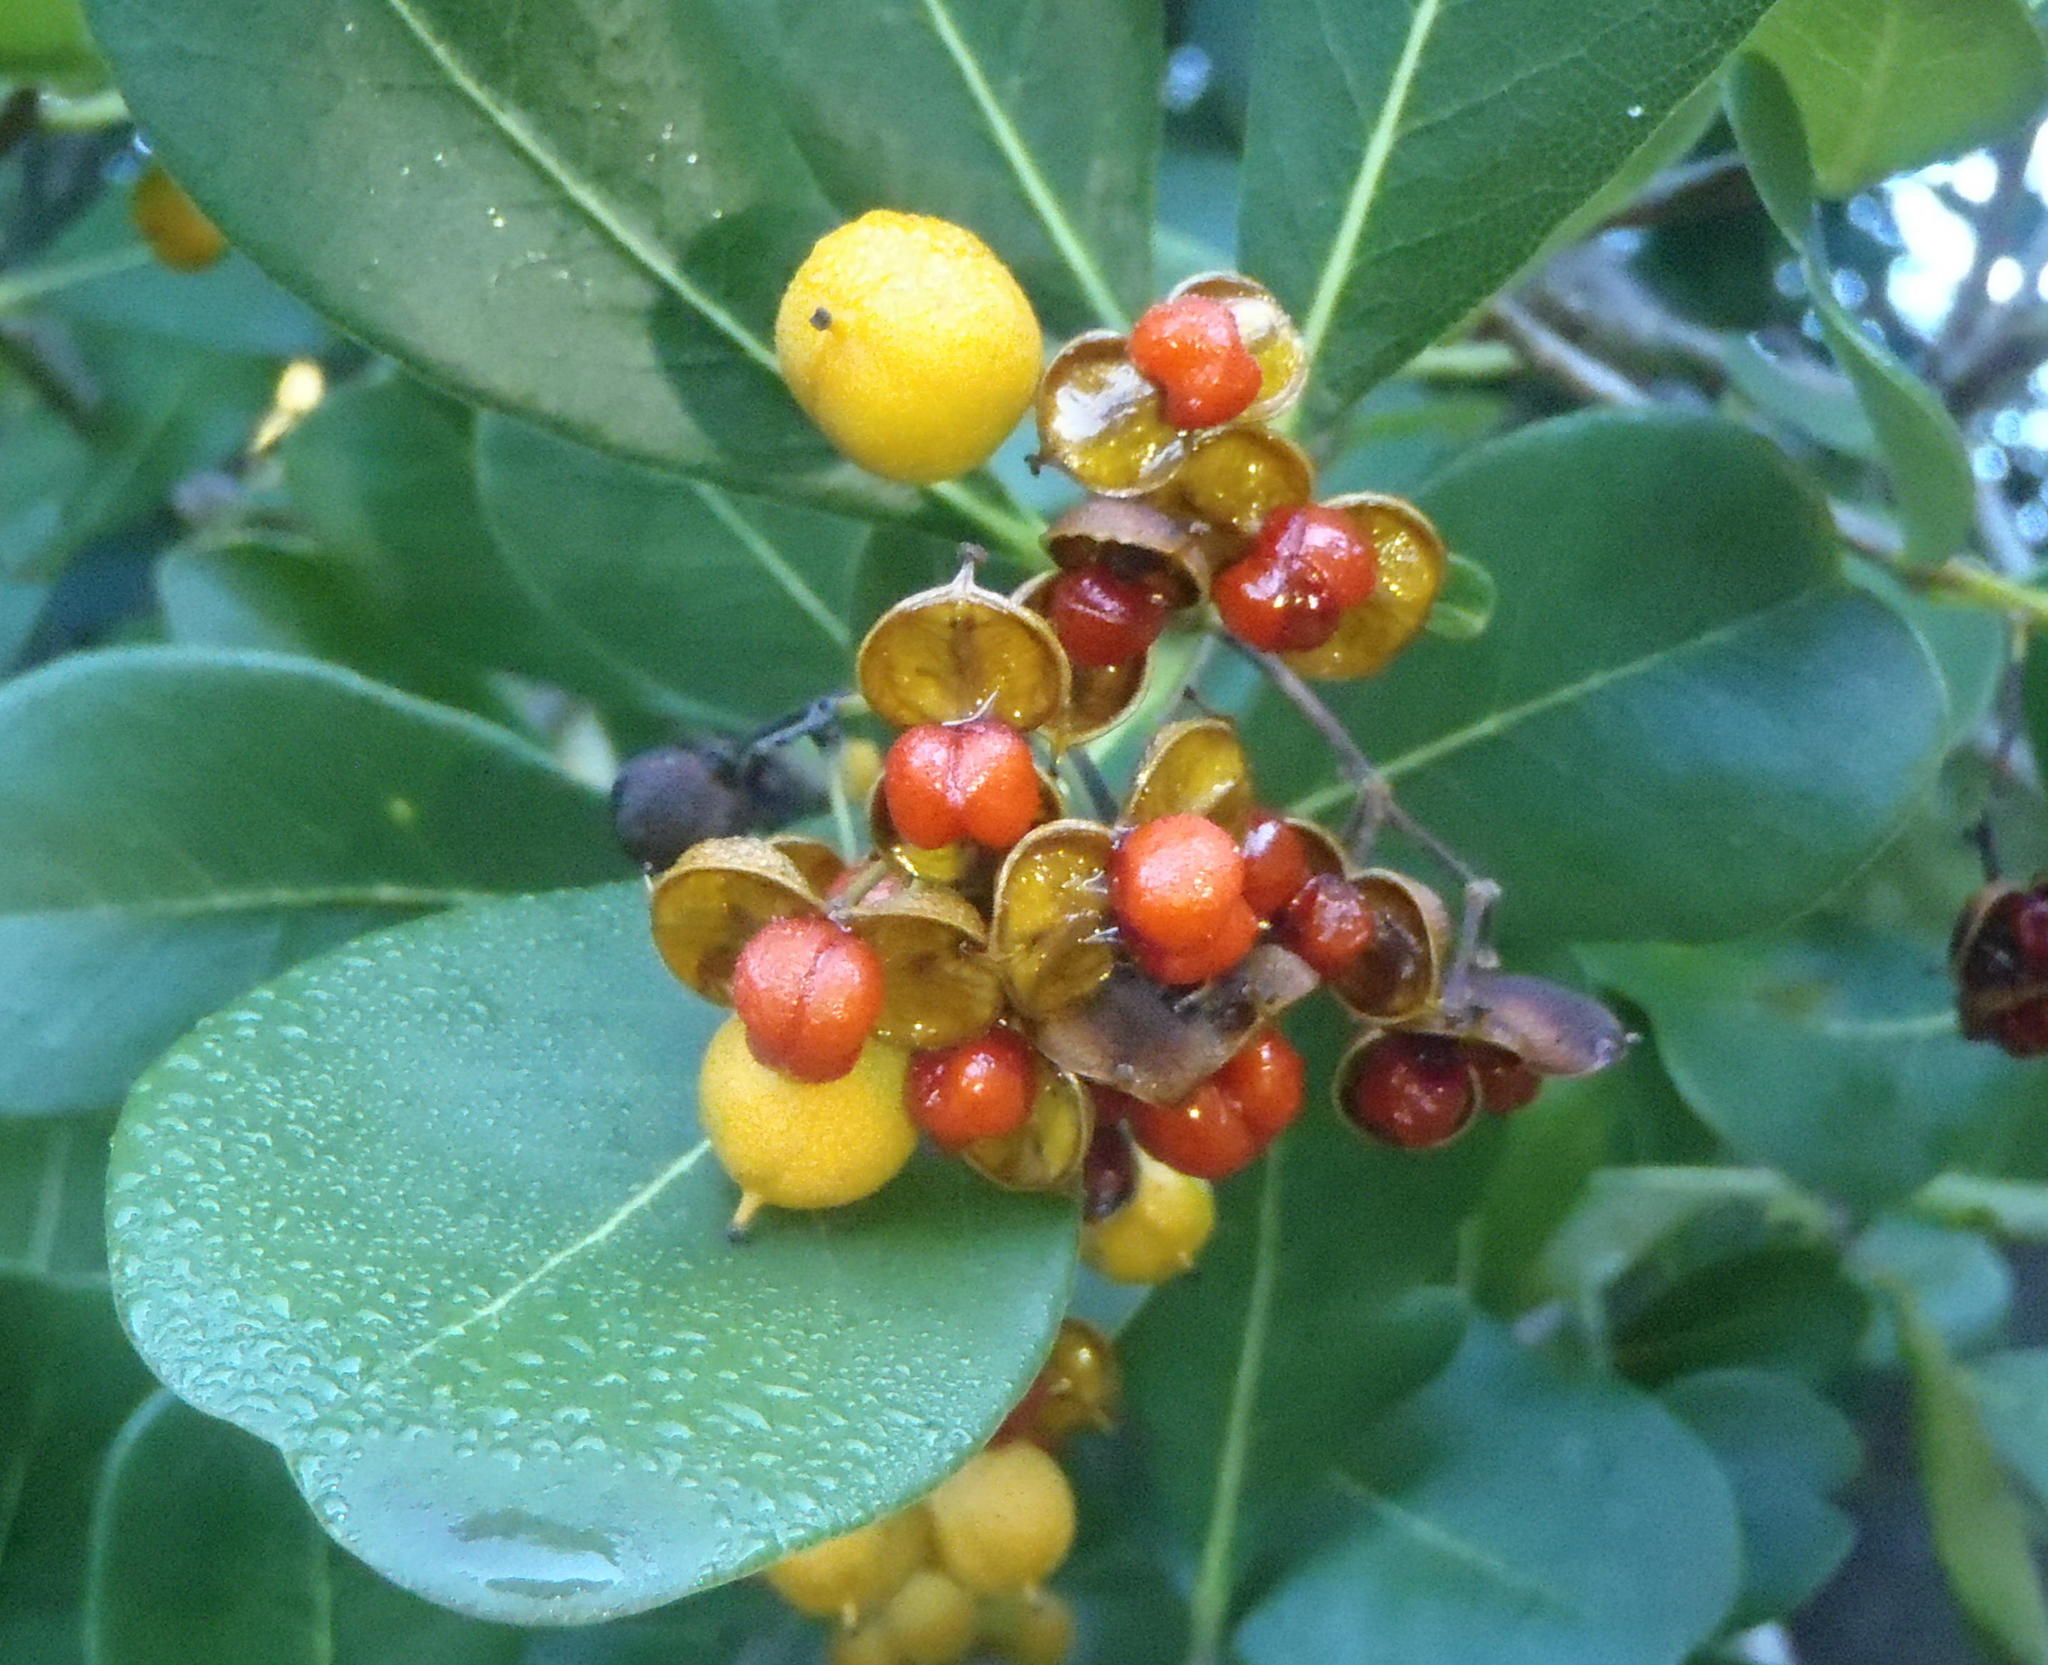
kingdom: Plantae
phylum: Tracheophyta
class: Magnoliopsida
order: Apiales
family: Pittosporaceae
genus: Pittosporum
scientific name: Pittosporum viridiflorum
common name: Cape cheesewood
